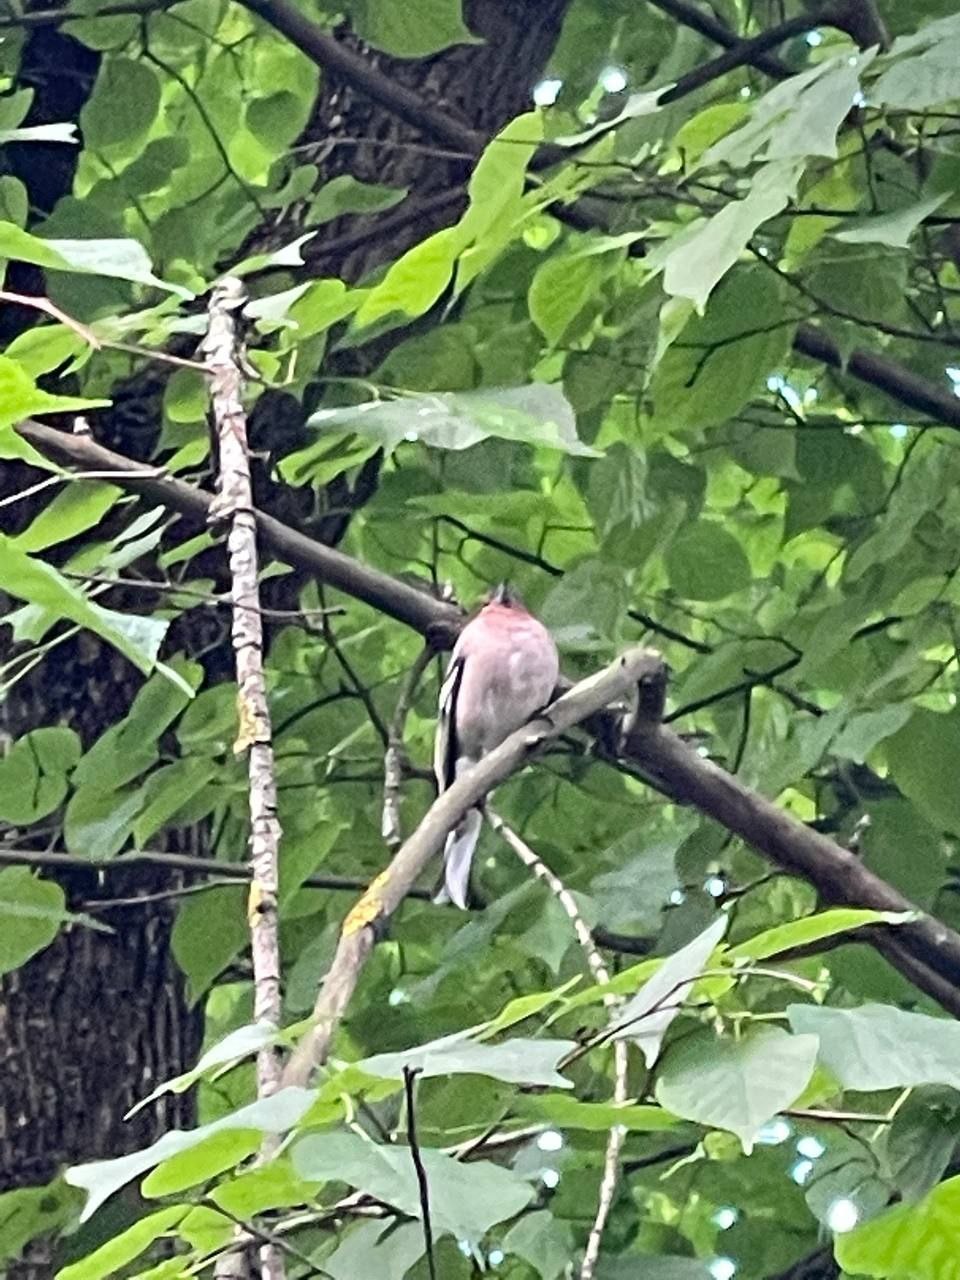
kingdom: Animalia
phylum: Chordata
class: Aves
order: Passeriformes
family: Fringillidae
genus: Fringilla
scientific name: Fringilla coelebs
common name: Common chaffinch
